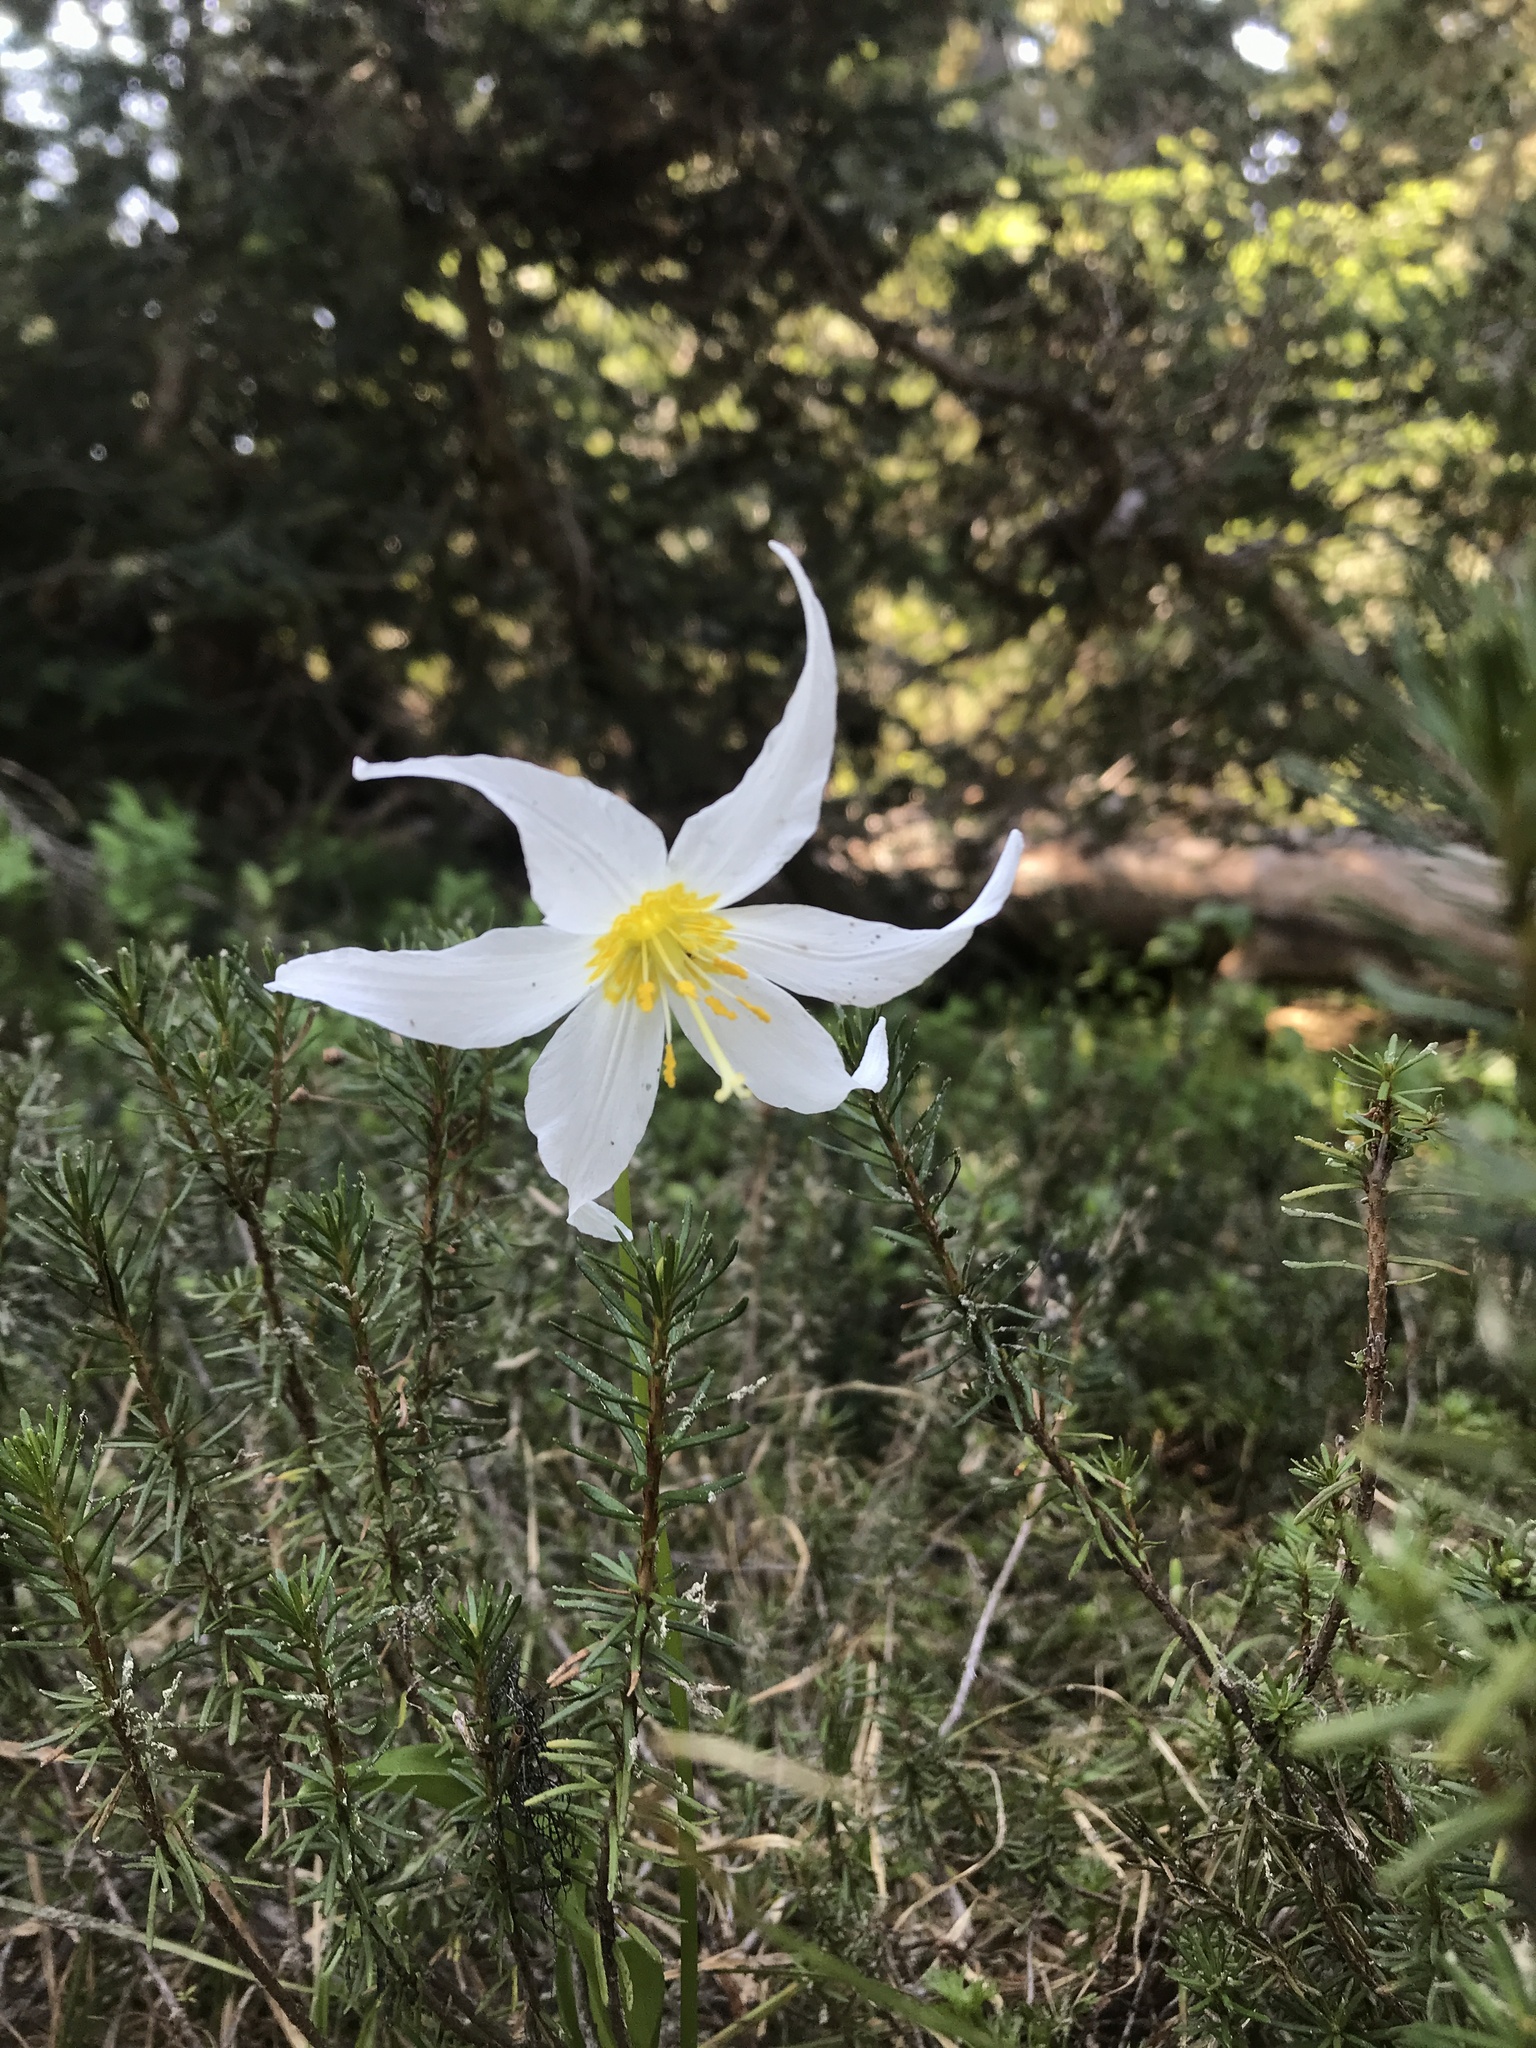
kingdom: Plantae
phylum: Tracheophyta
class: Liliopsida
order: Liliales
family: Liliaceae
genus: Erythronium
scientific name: Erythronium montanum
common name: Avalanche lily
